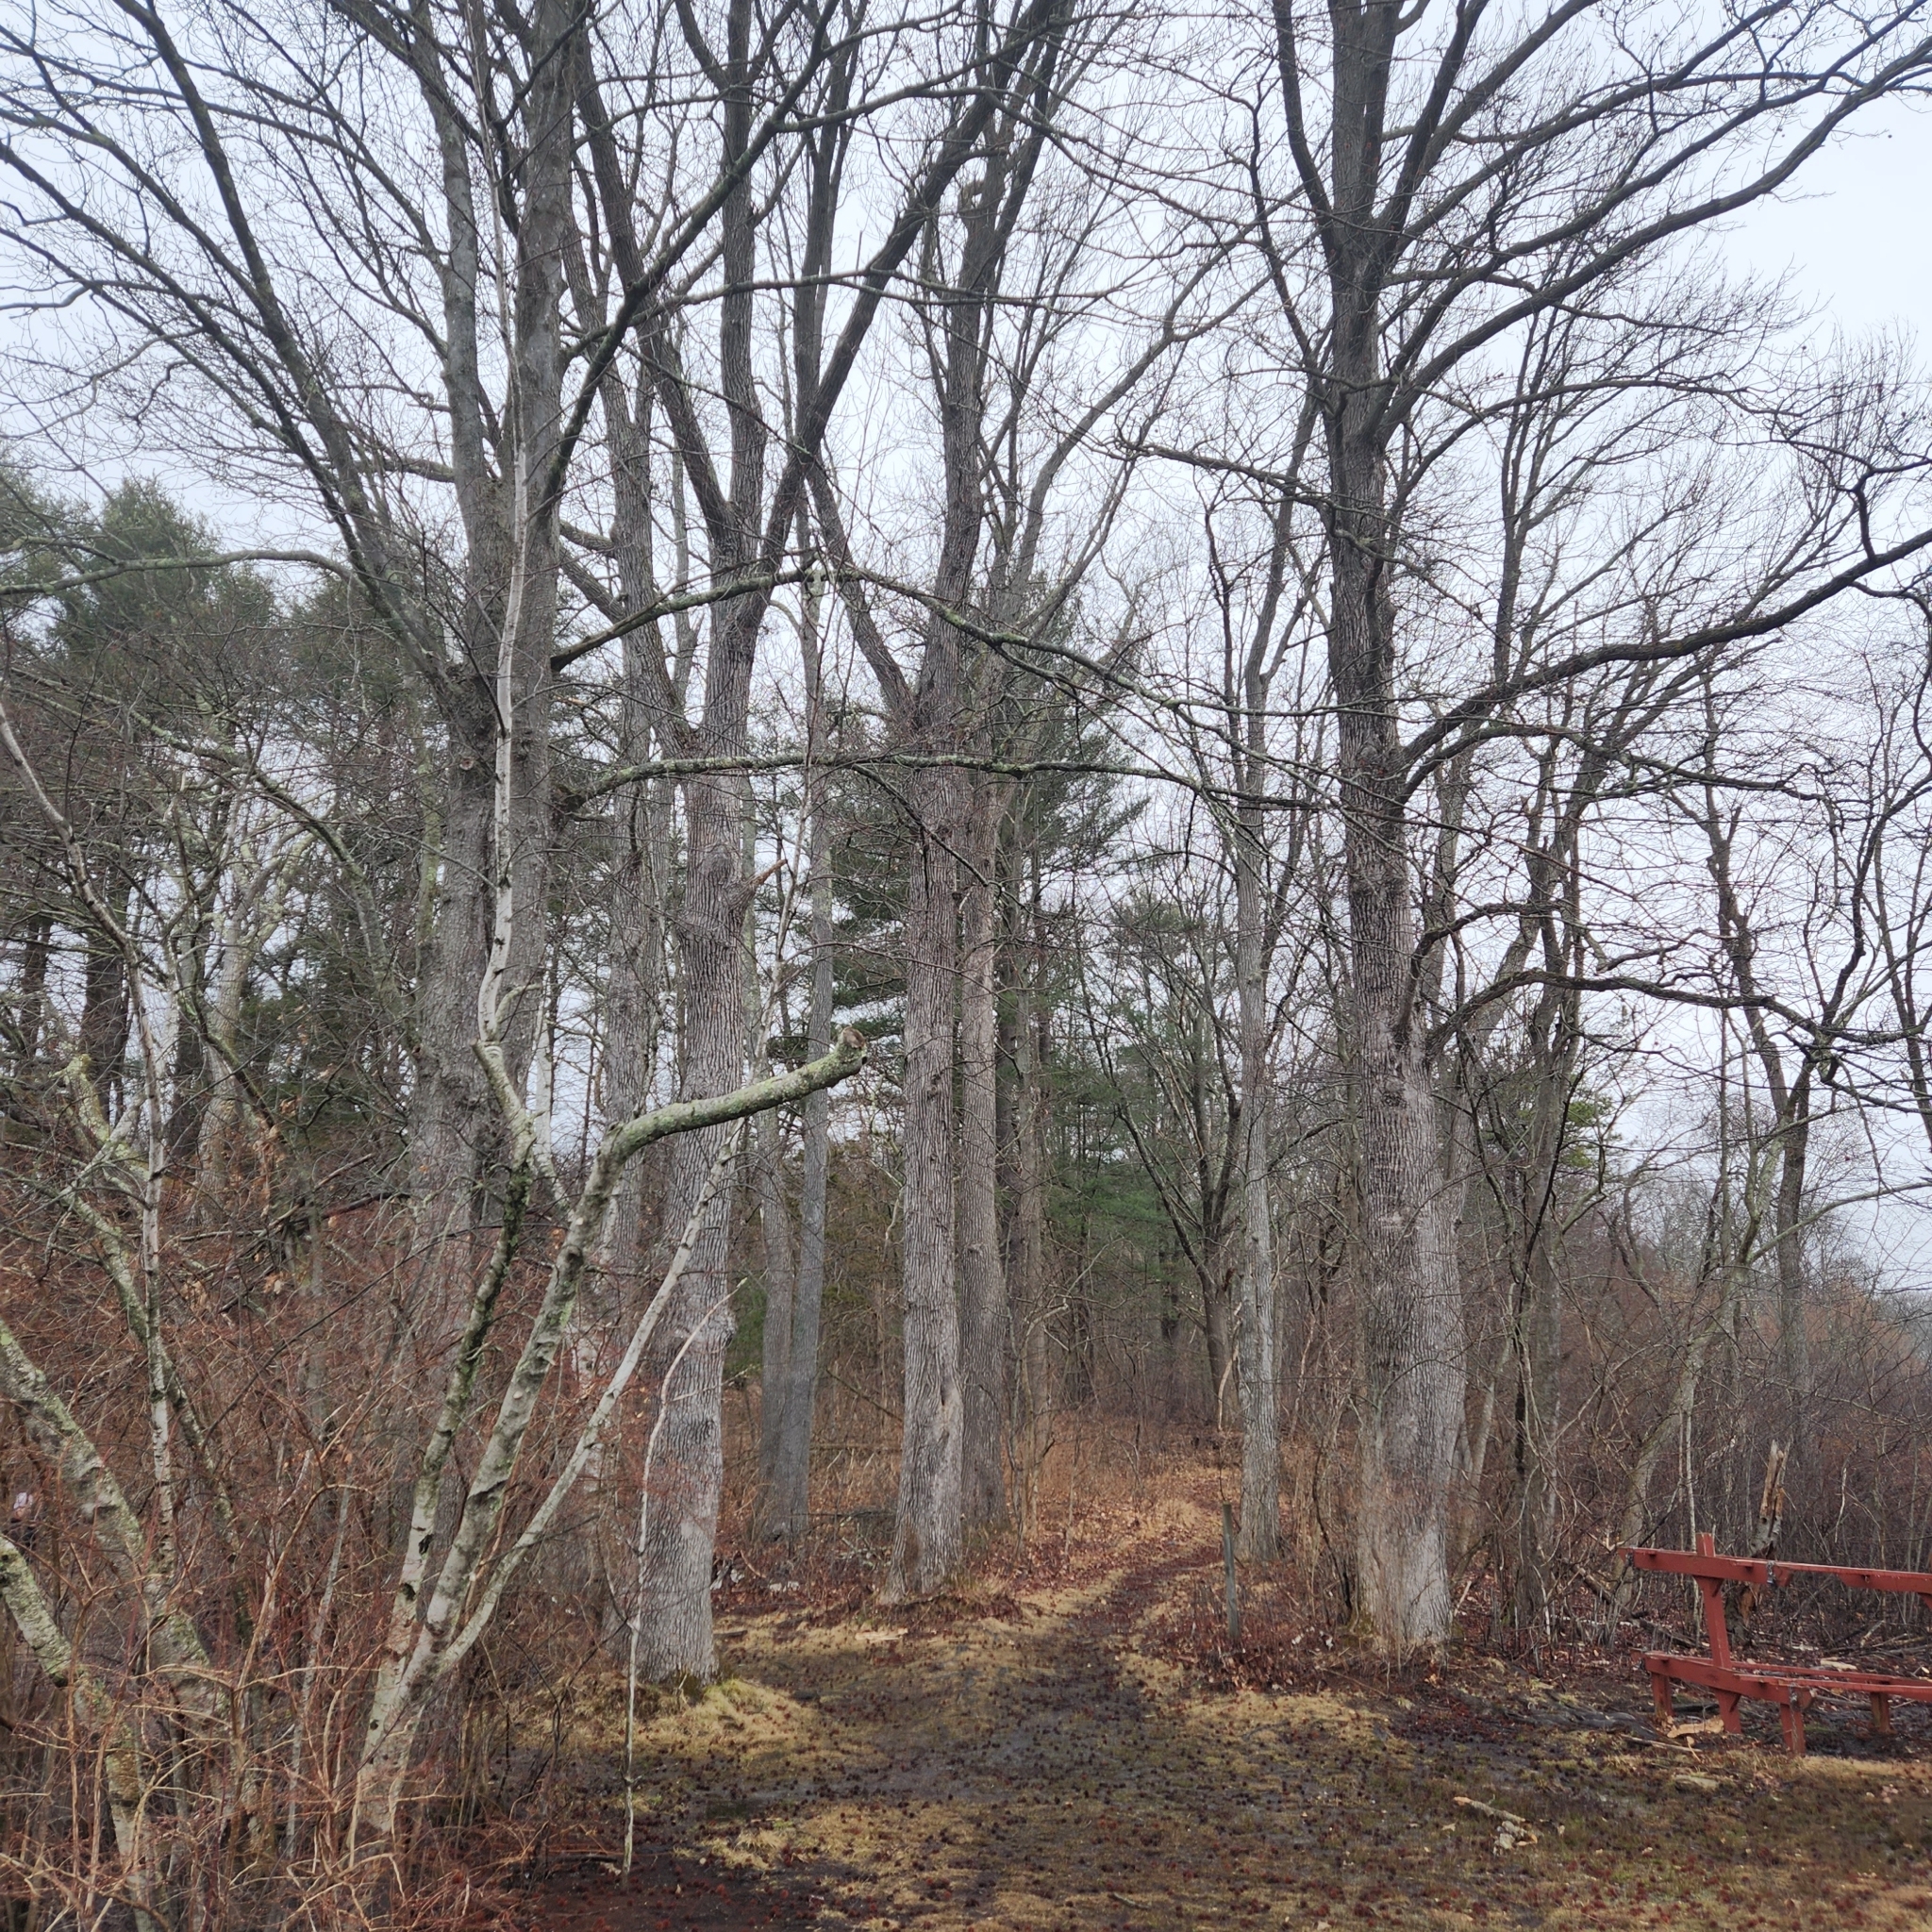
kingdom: Plantae
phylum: Tracheophyta
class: Magnoliopsida
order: Saxifragales
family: Altingiaceae
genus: Liquidambar
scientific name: Liquidambar styraciflua
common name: Sweet gum
